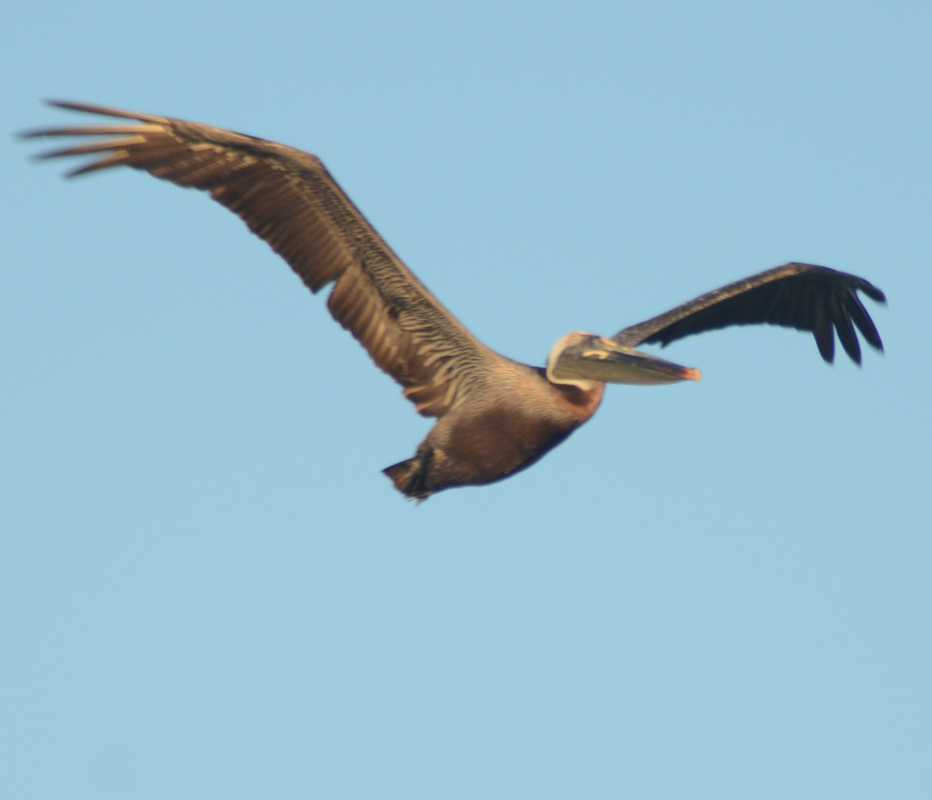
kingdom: Animalia
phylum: Chordata
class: Aves
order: Pelecaniformes
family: Pelecanidae
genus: Pelecanus
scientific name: Pelecanus occidentalis
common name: Brown pelican
